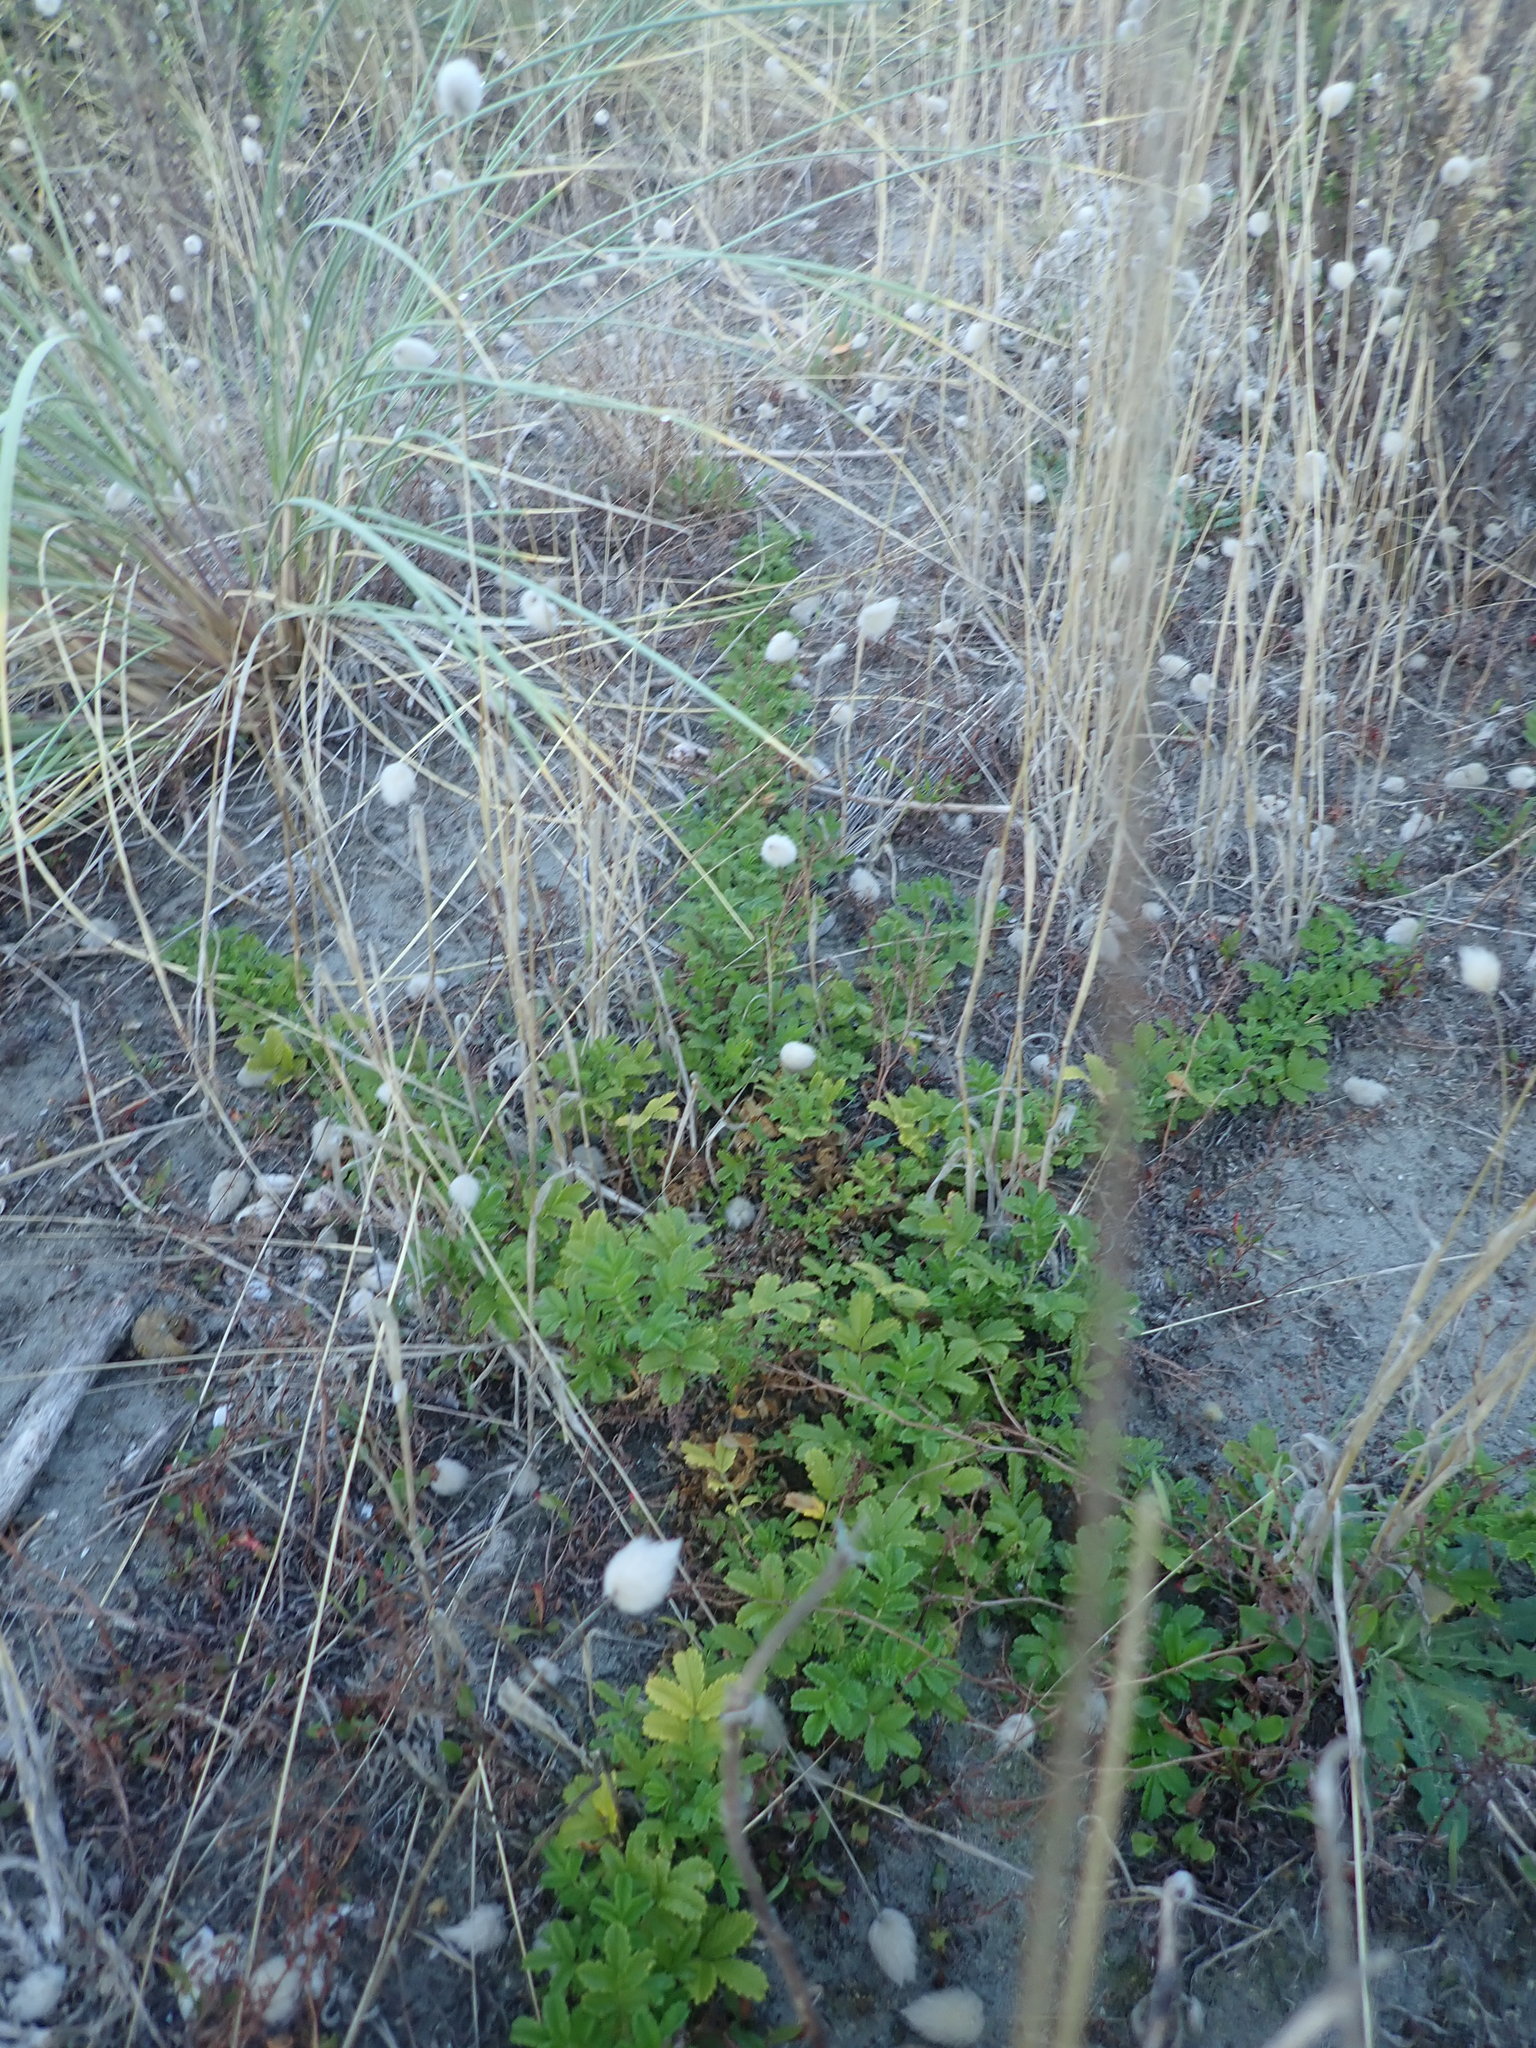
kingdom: Plantae
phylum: Tracheophyta
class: Magnoliopsida
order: Rosales
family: Rosaceae
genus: Acaena
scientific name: Acaena novae-zelandiae
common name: Pirri-pirri-bur
